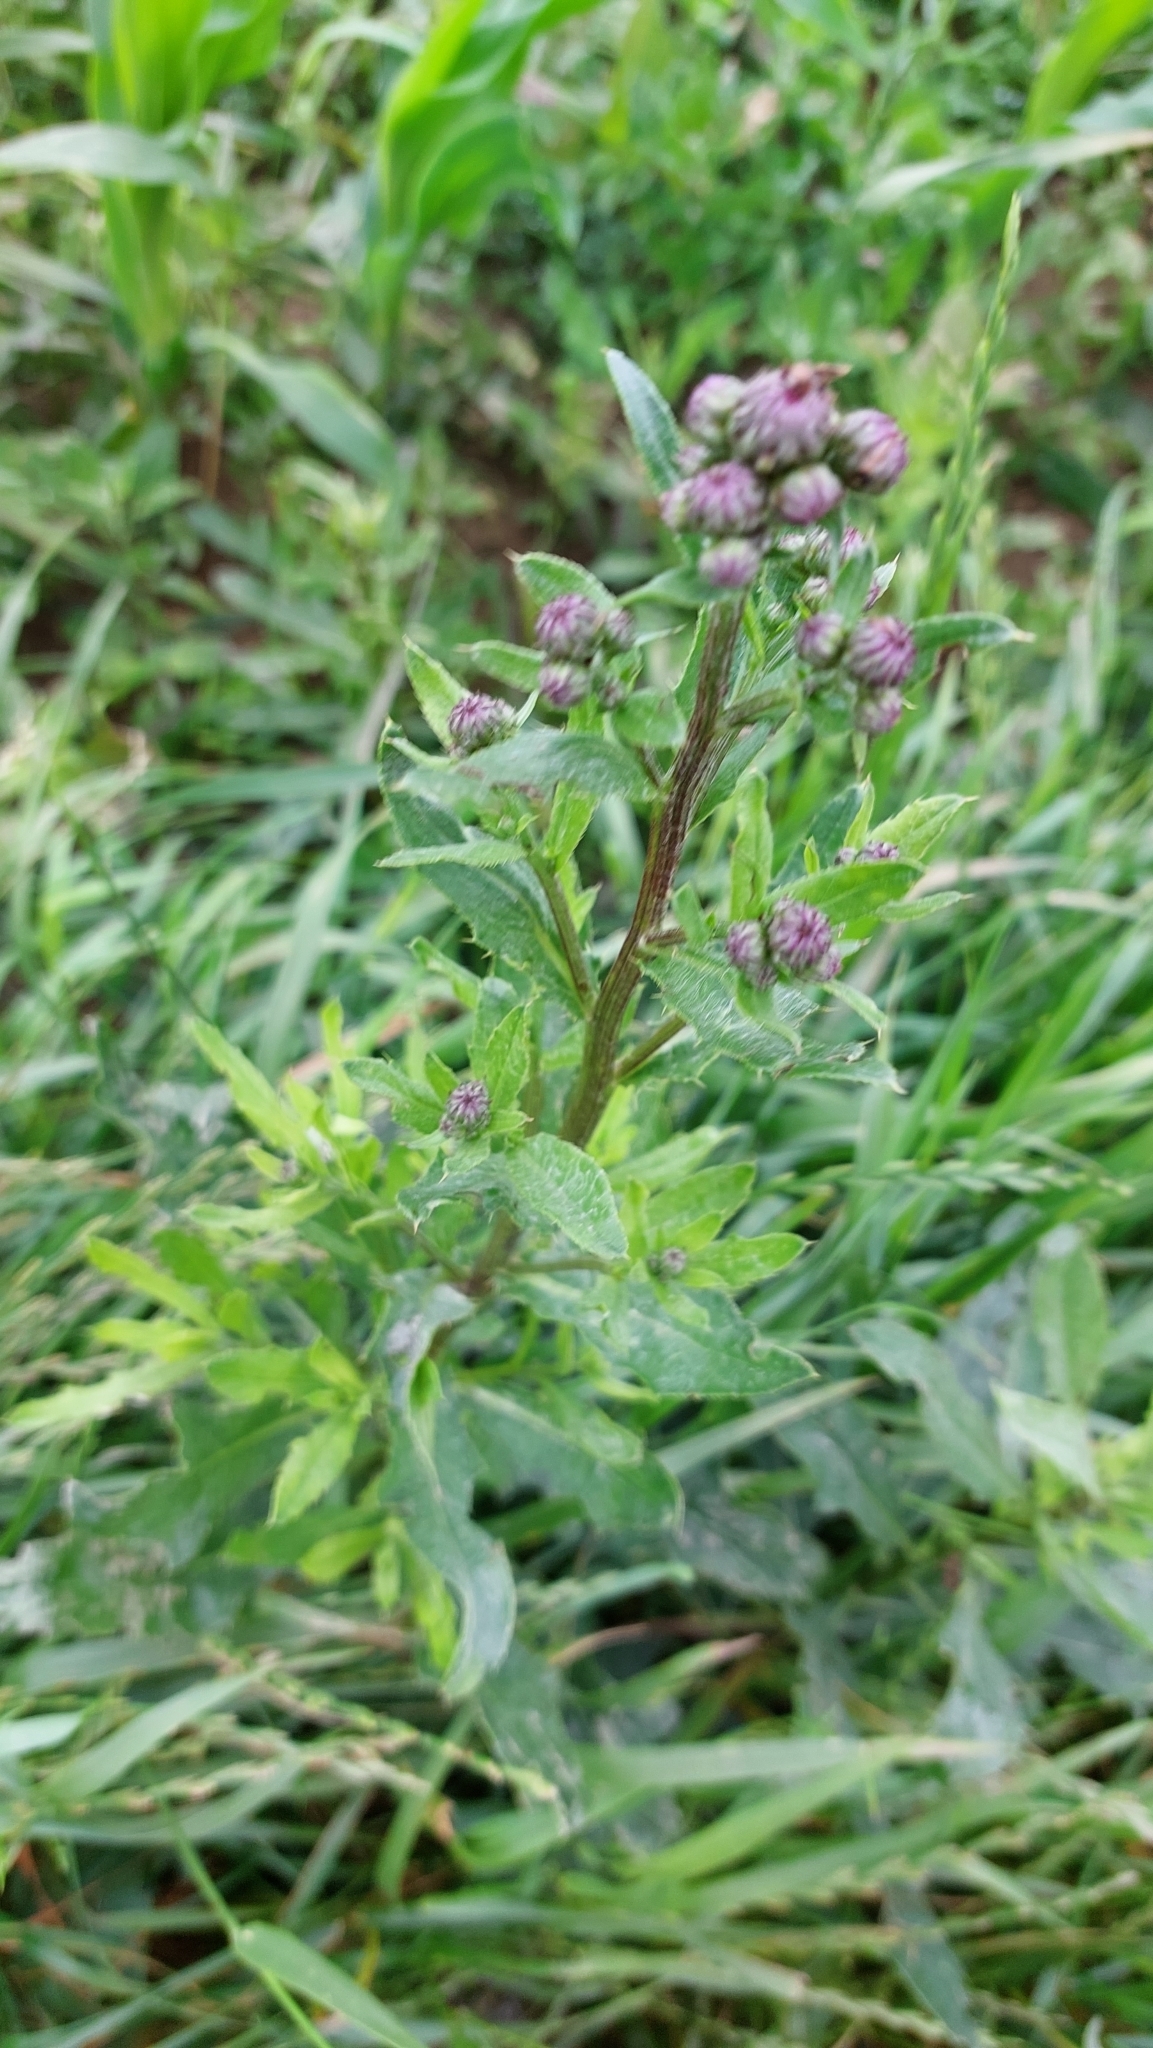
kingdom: Plantae
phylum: Tracheophyta
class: Magnoliopsida
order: Asterales
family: Asteraceae
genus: Cirsium
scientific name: Cirsium arvense
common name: Creeping thistle
